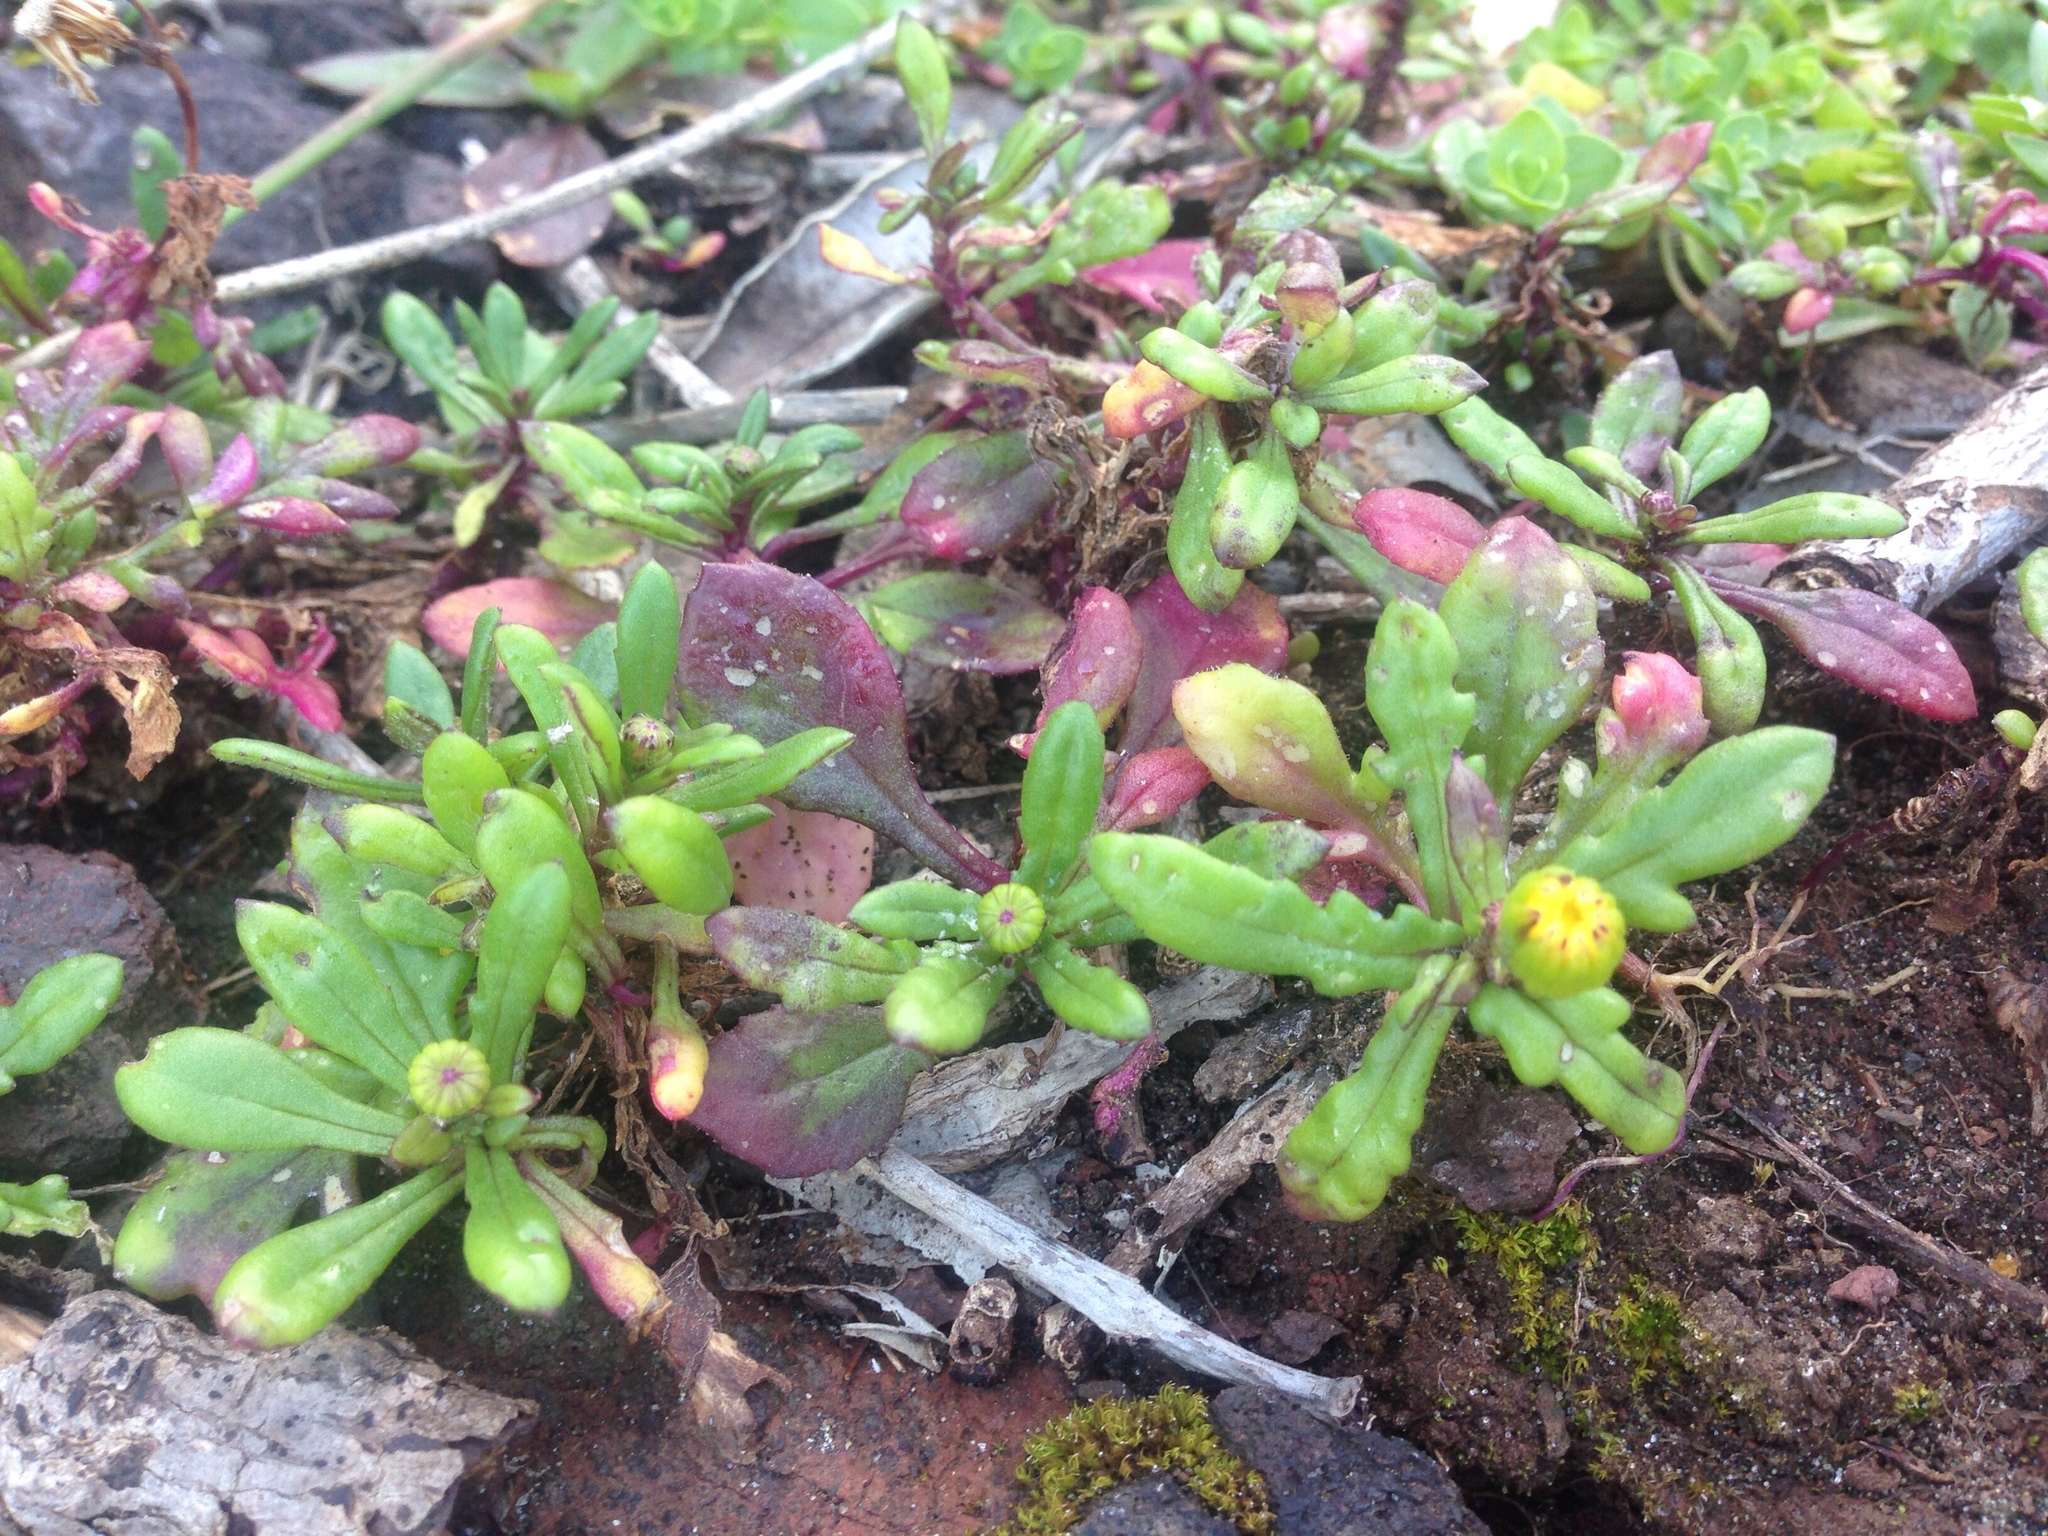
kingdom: Plantae
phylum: Tracheophyta
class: Magnoliopsida
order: Asterales
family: Asteraceae
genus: Senecio
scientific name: Senecio lautus
